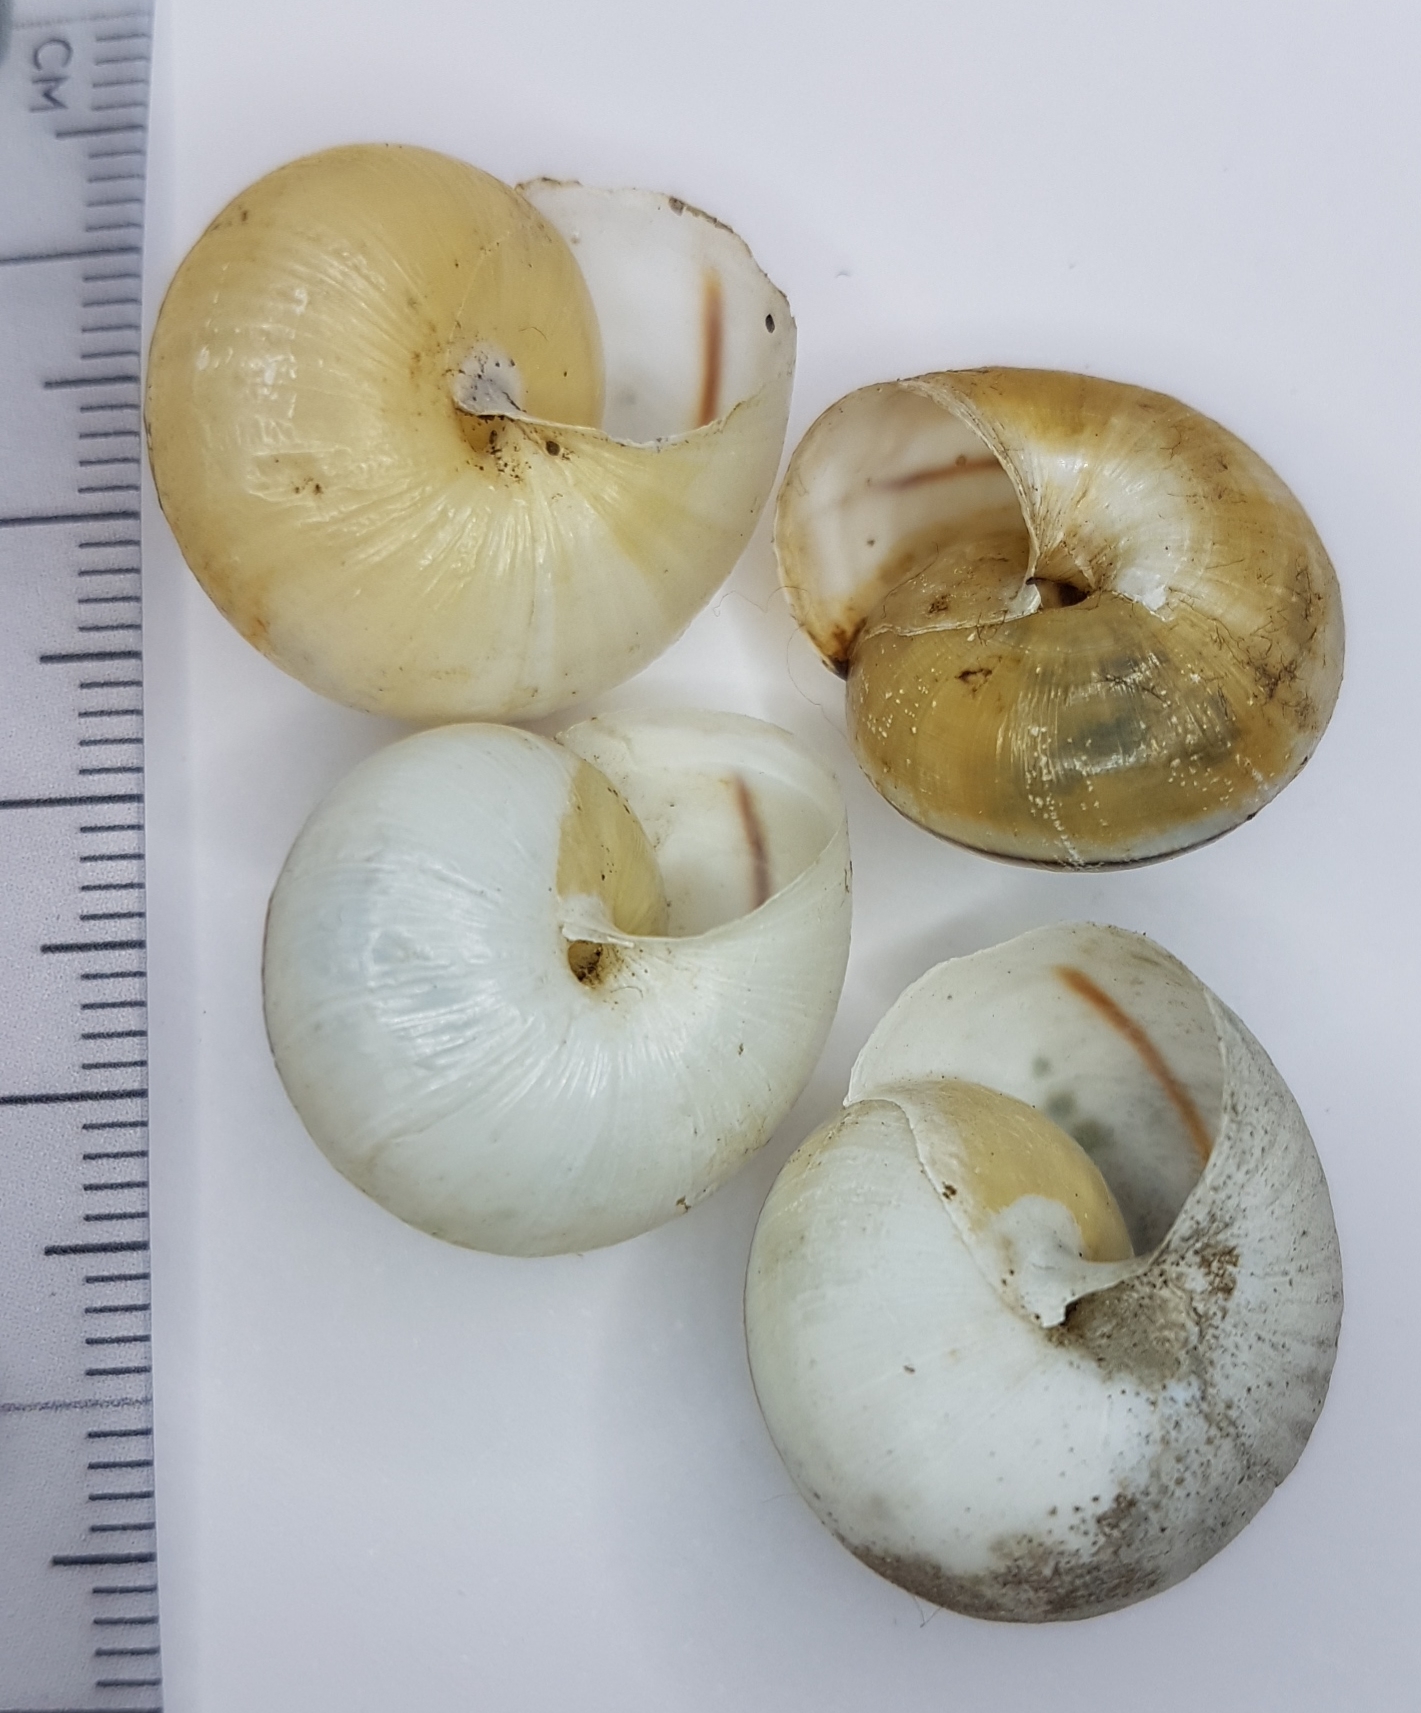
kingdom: Animalia
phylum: Mollusca
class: Gastropoda
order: Stylommatophora
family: Hygromiidae
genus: Portugala
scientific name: Portugala inchoata
